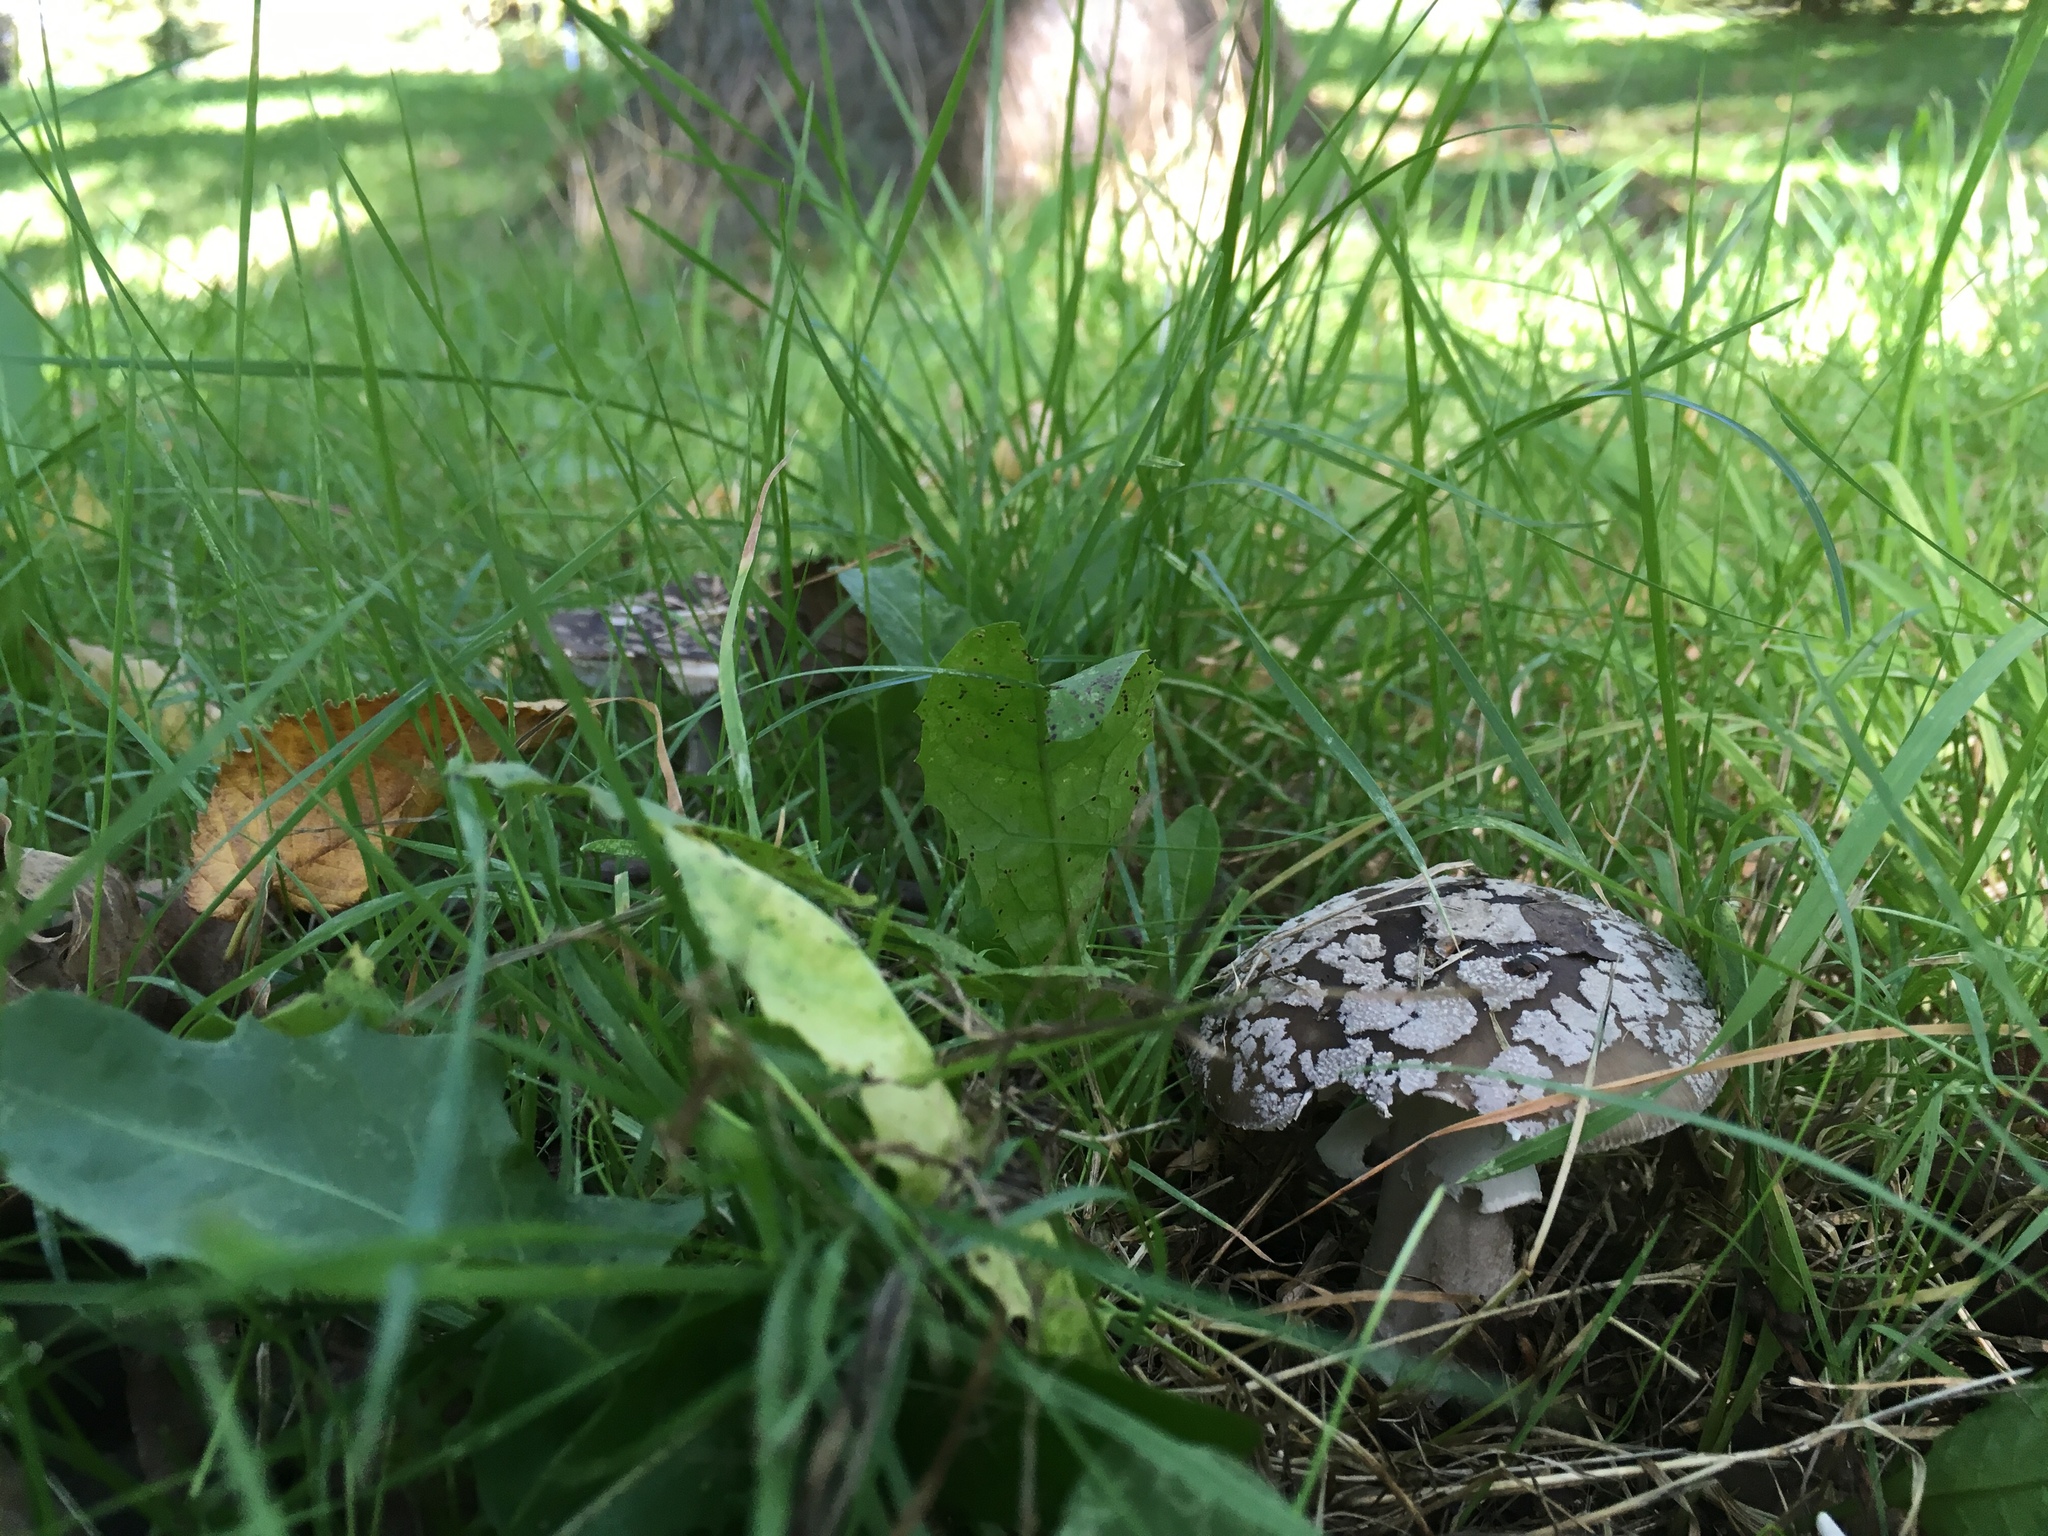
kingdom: Fungi
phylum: Basidiomycota
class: Agaricomycetes
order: Agaricales
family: Amanitaceae
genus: Amanita
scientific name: Amanita excelsa
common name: European false blusher
